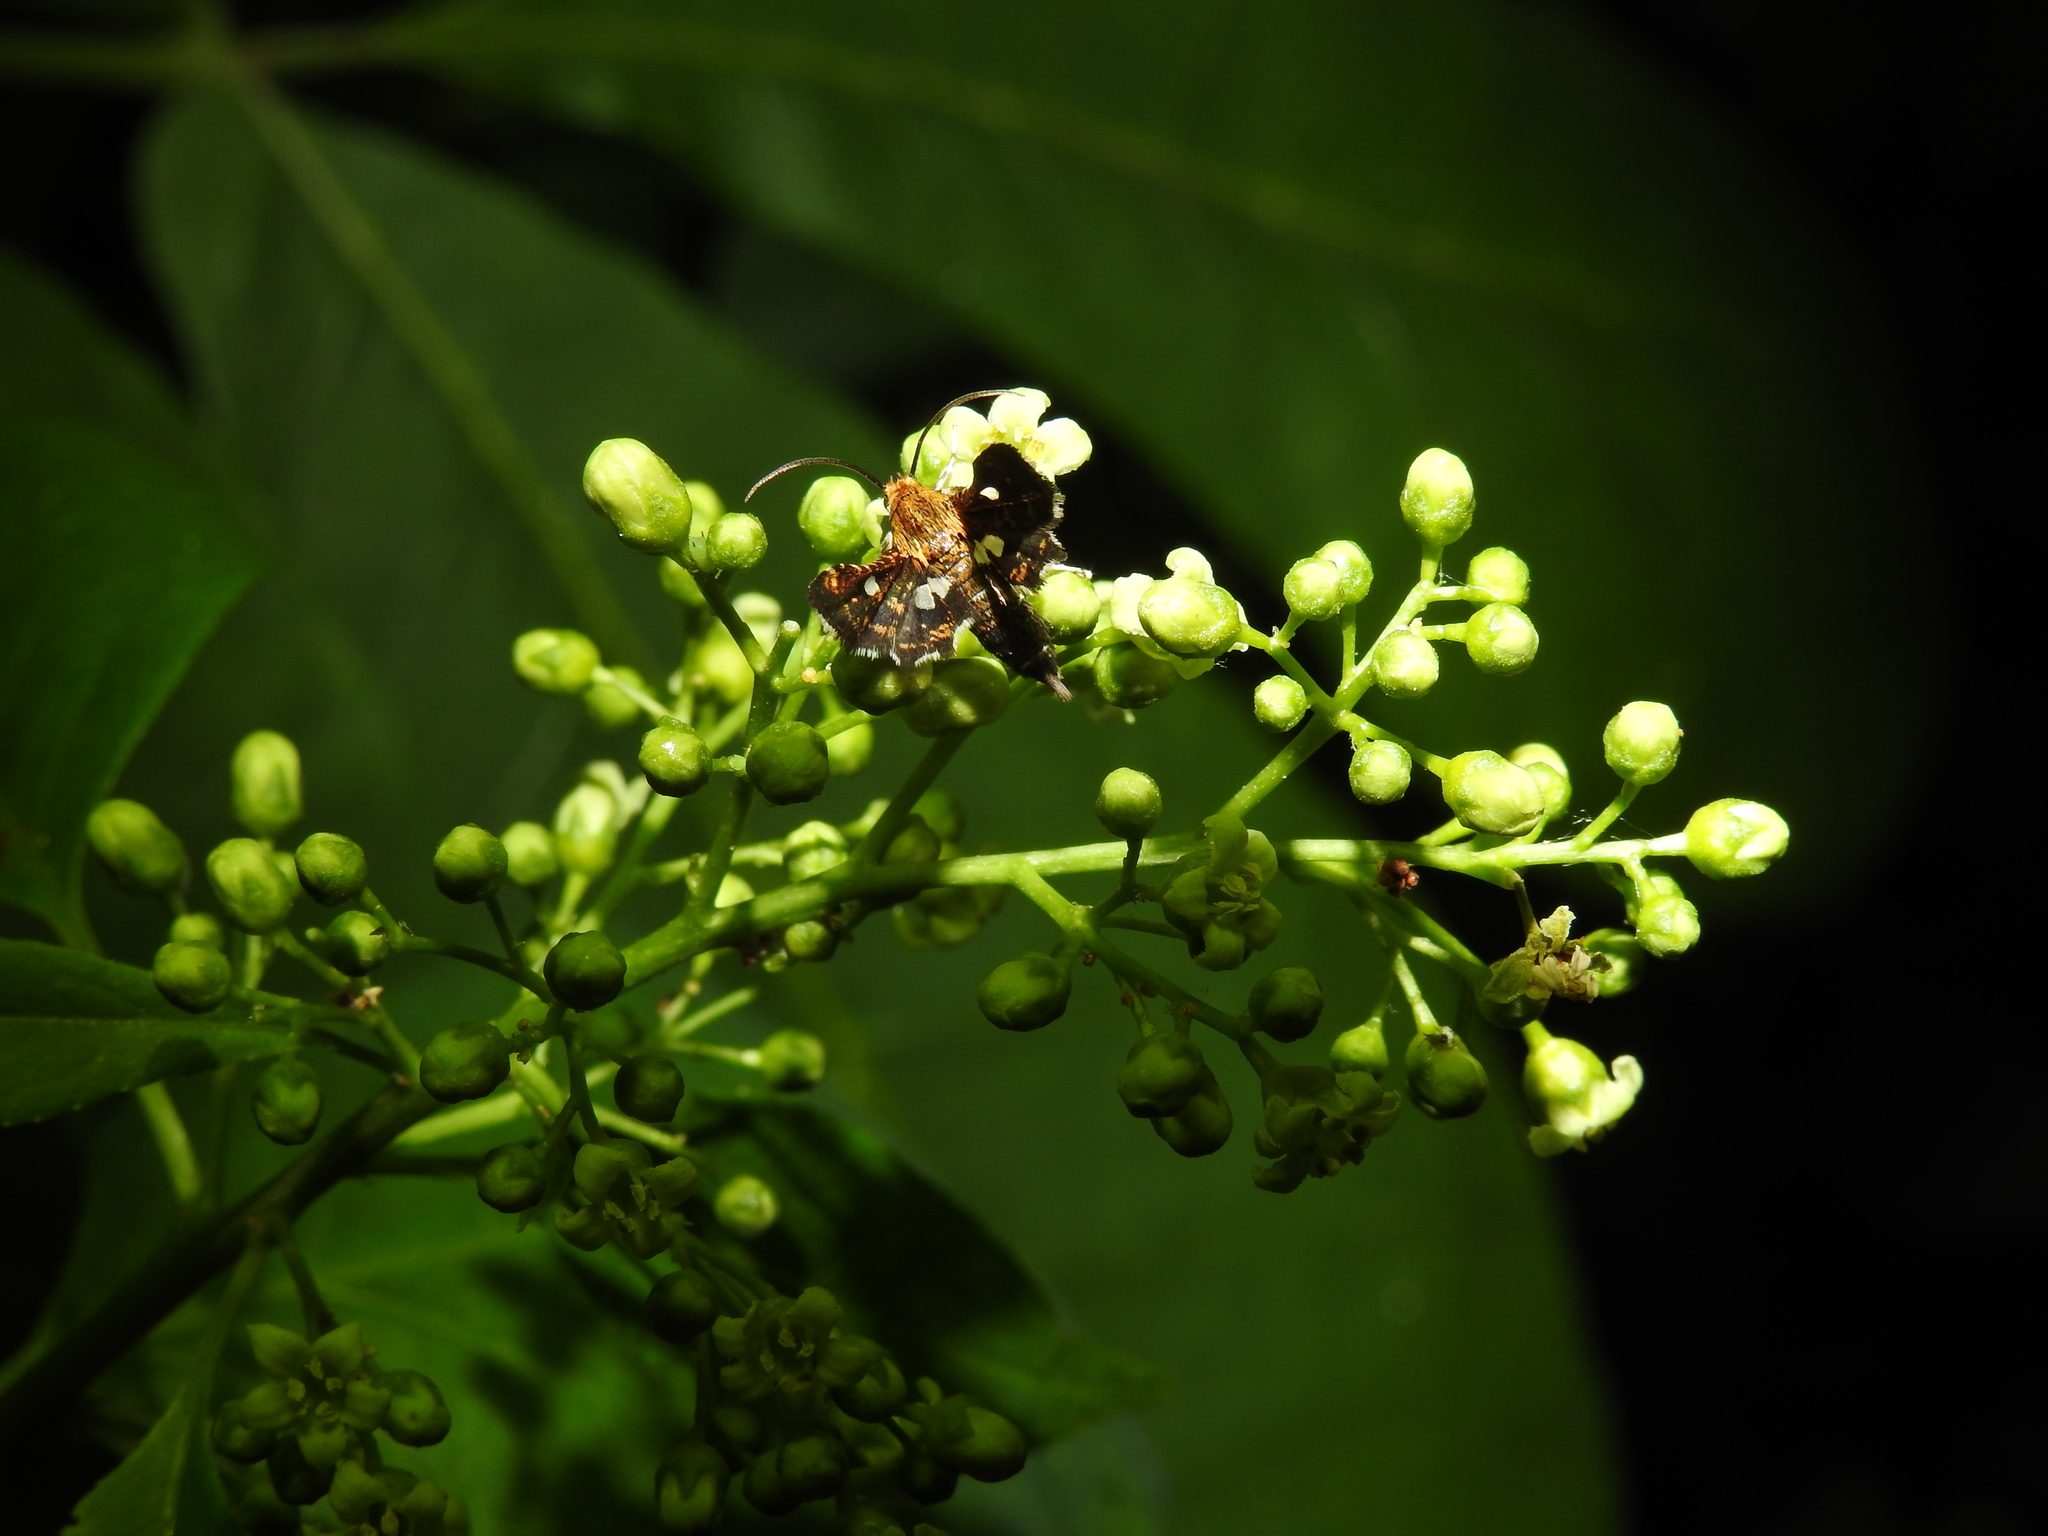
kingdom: Animalia
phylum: Arthropoda
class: Insecta
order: Lepidoptera
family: Thyrididae
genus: Thyris
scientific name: Thyris maculata
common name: Spotted thyris moth
